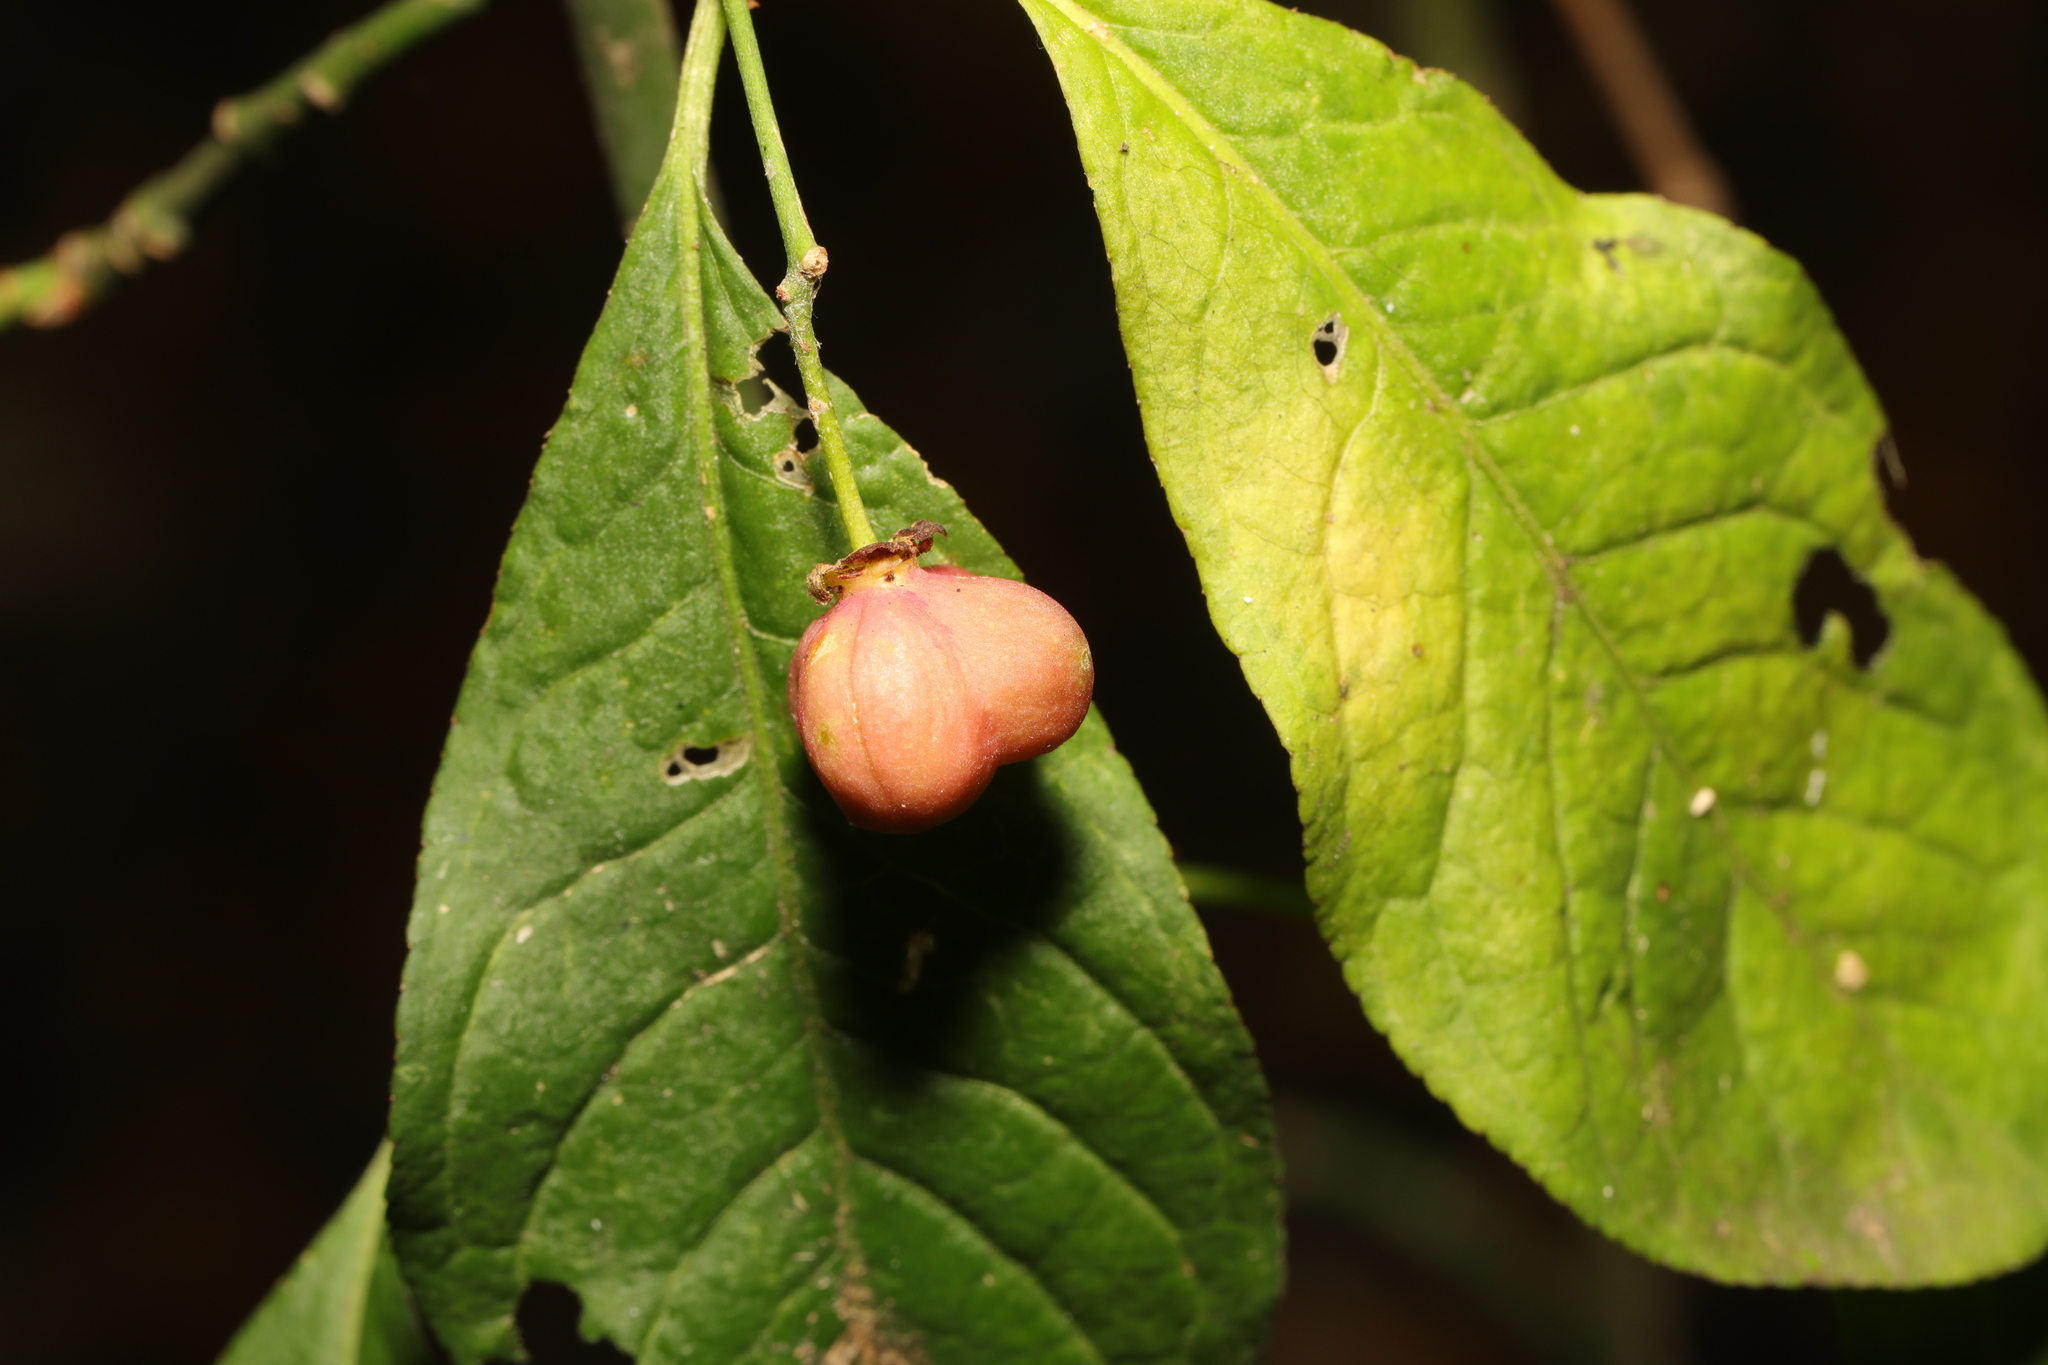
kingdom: Plantae
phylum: Tracheophyta
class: Magnoliopsida
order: Celastrales
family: Celastraceae
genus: Euonymus
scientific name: Euonymus europaeus
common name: Spindle
